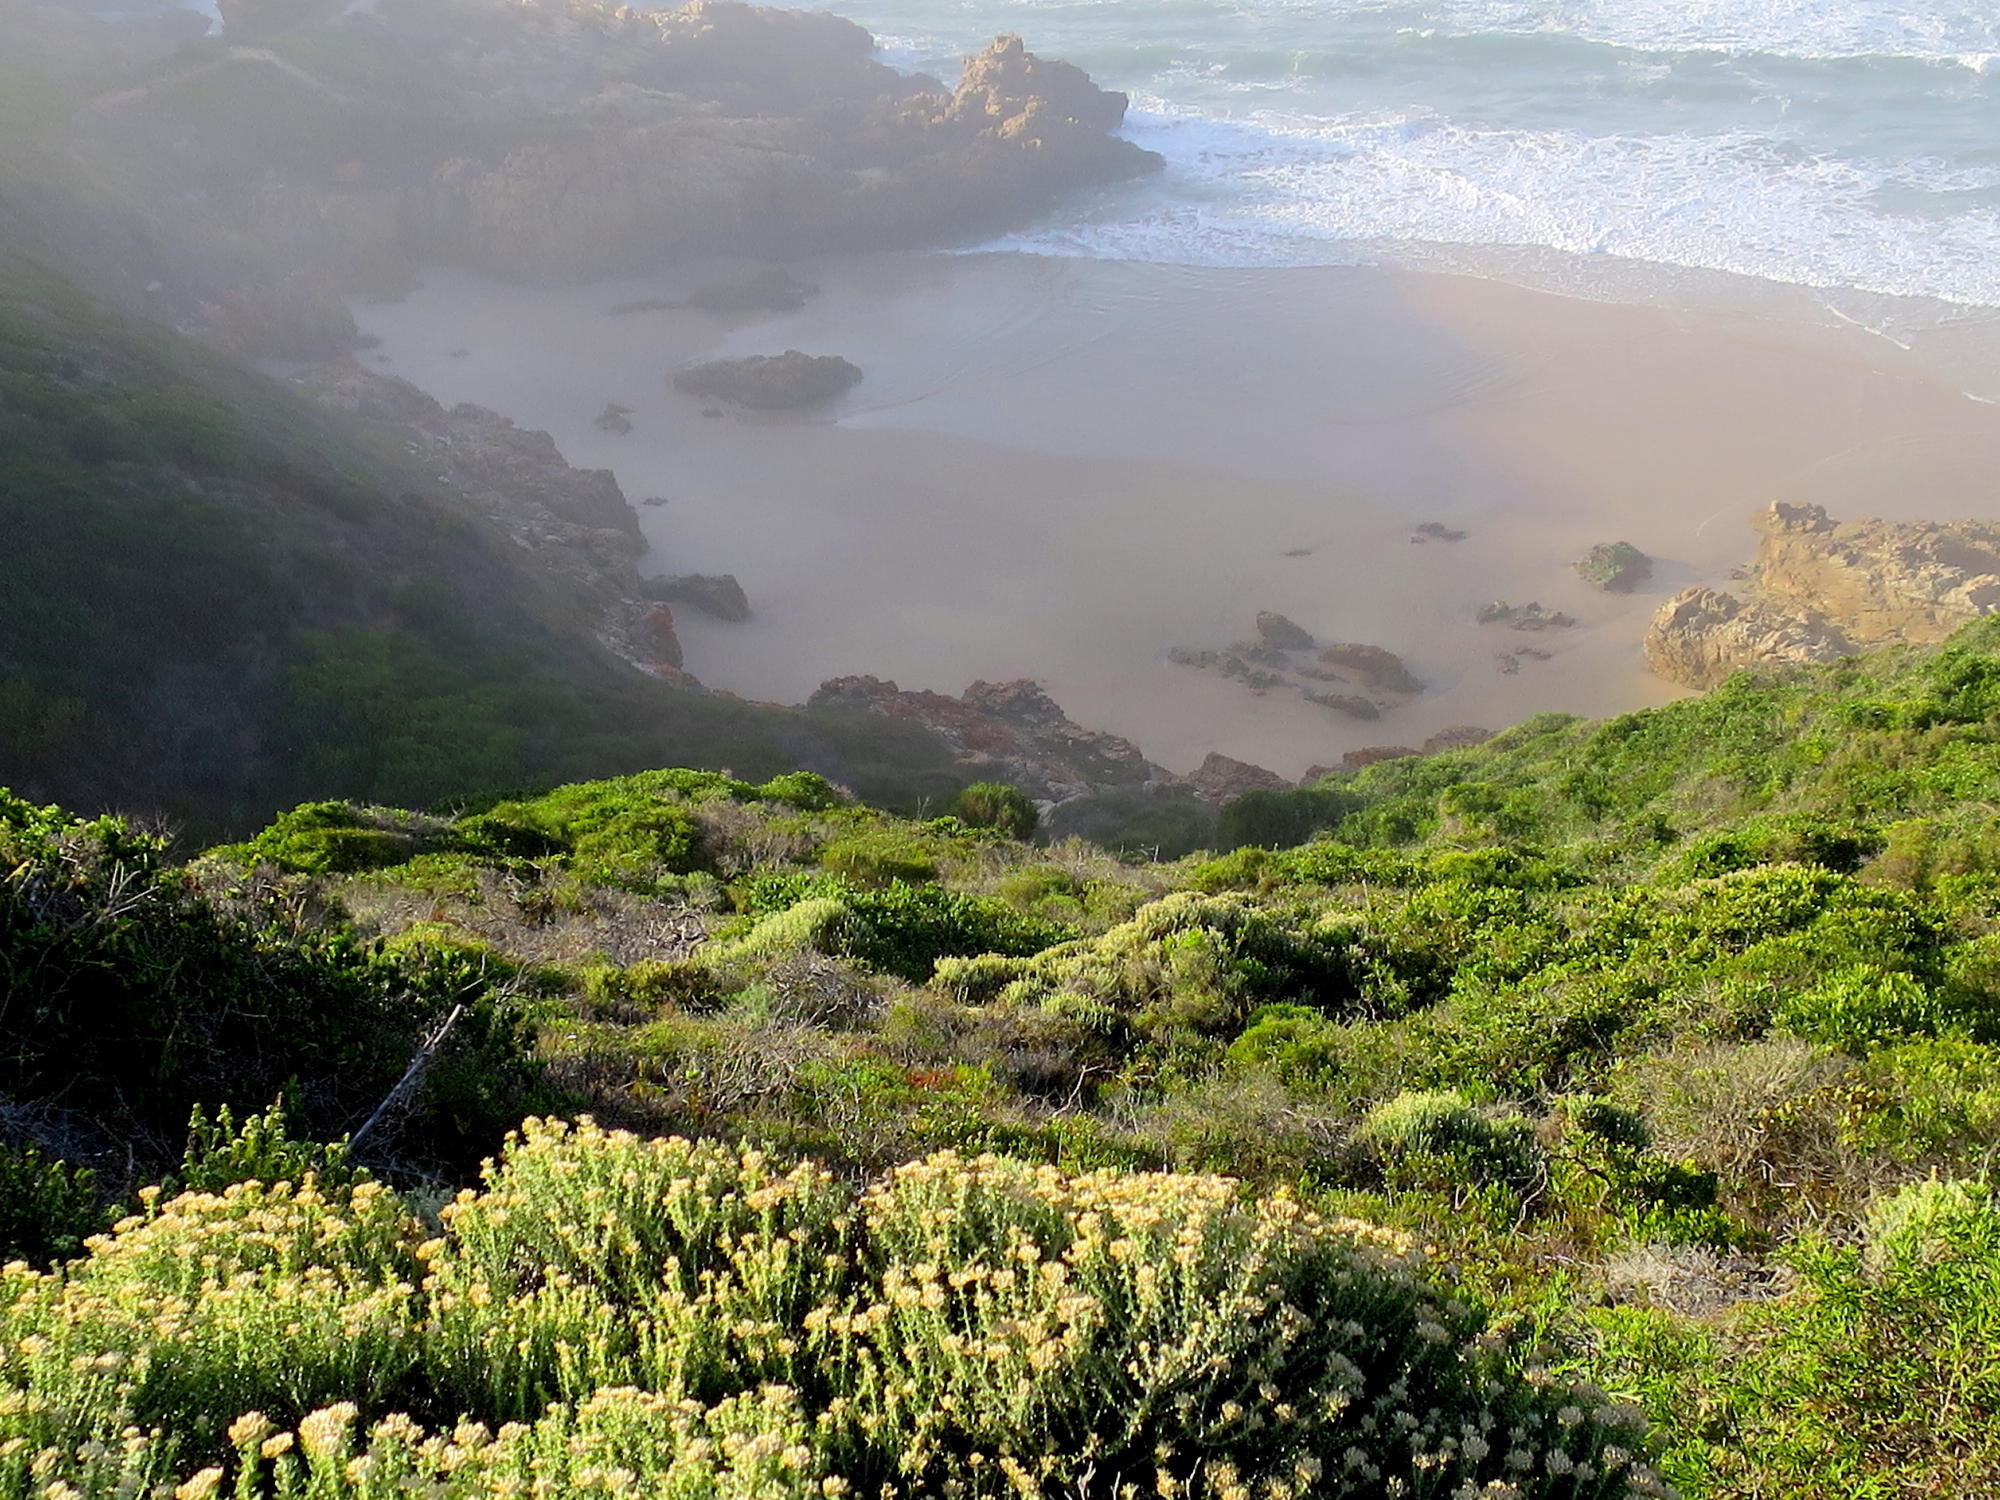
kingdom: Plantae
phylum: Tracheophyta
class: Magnoliopsida
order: Asterales
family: Asteraceae
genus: Metalasia
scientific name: Metalasia muricata
